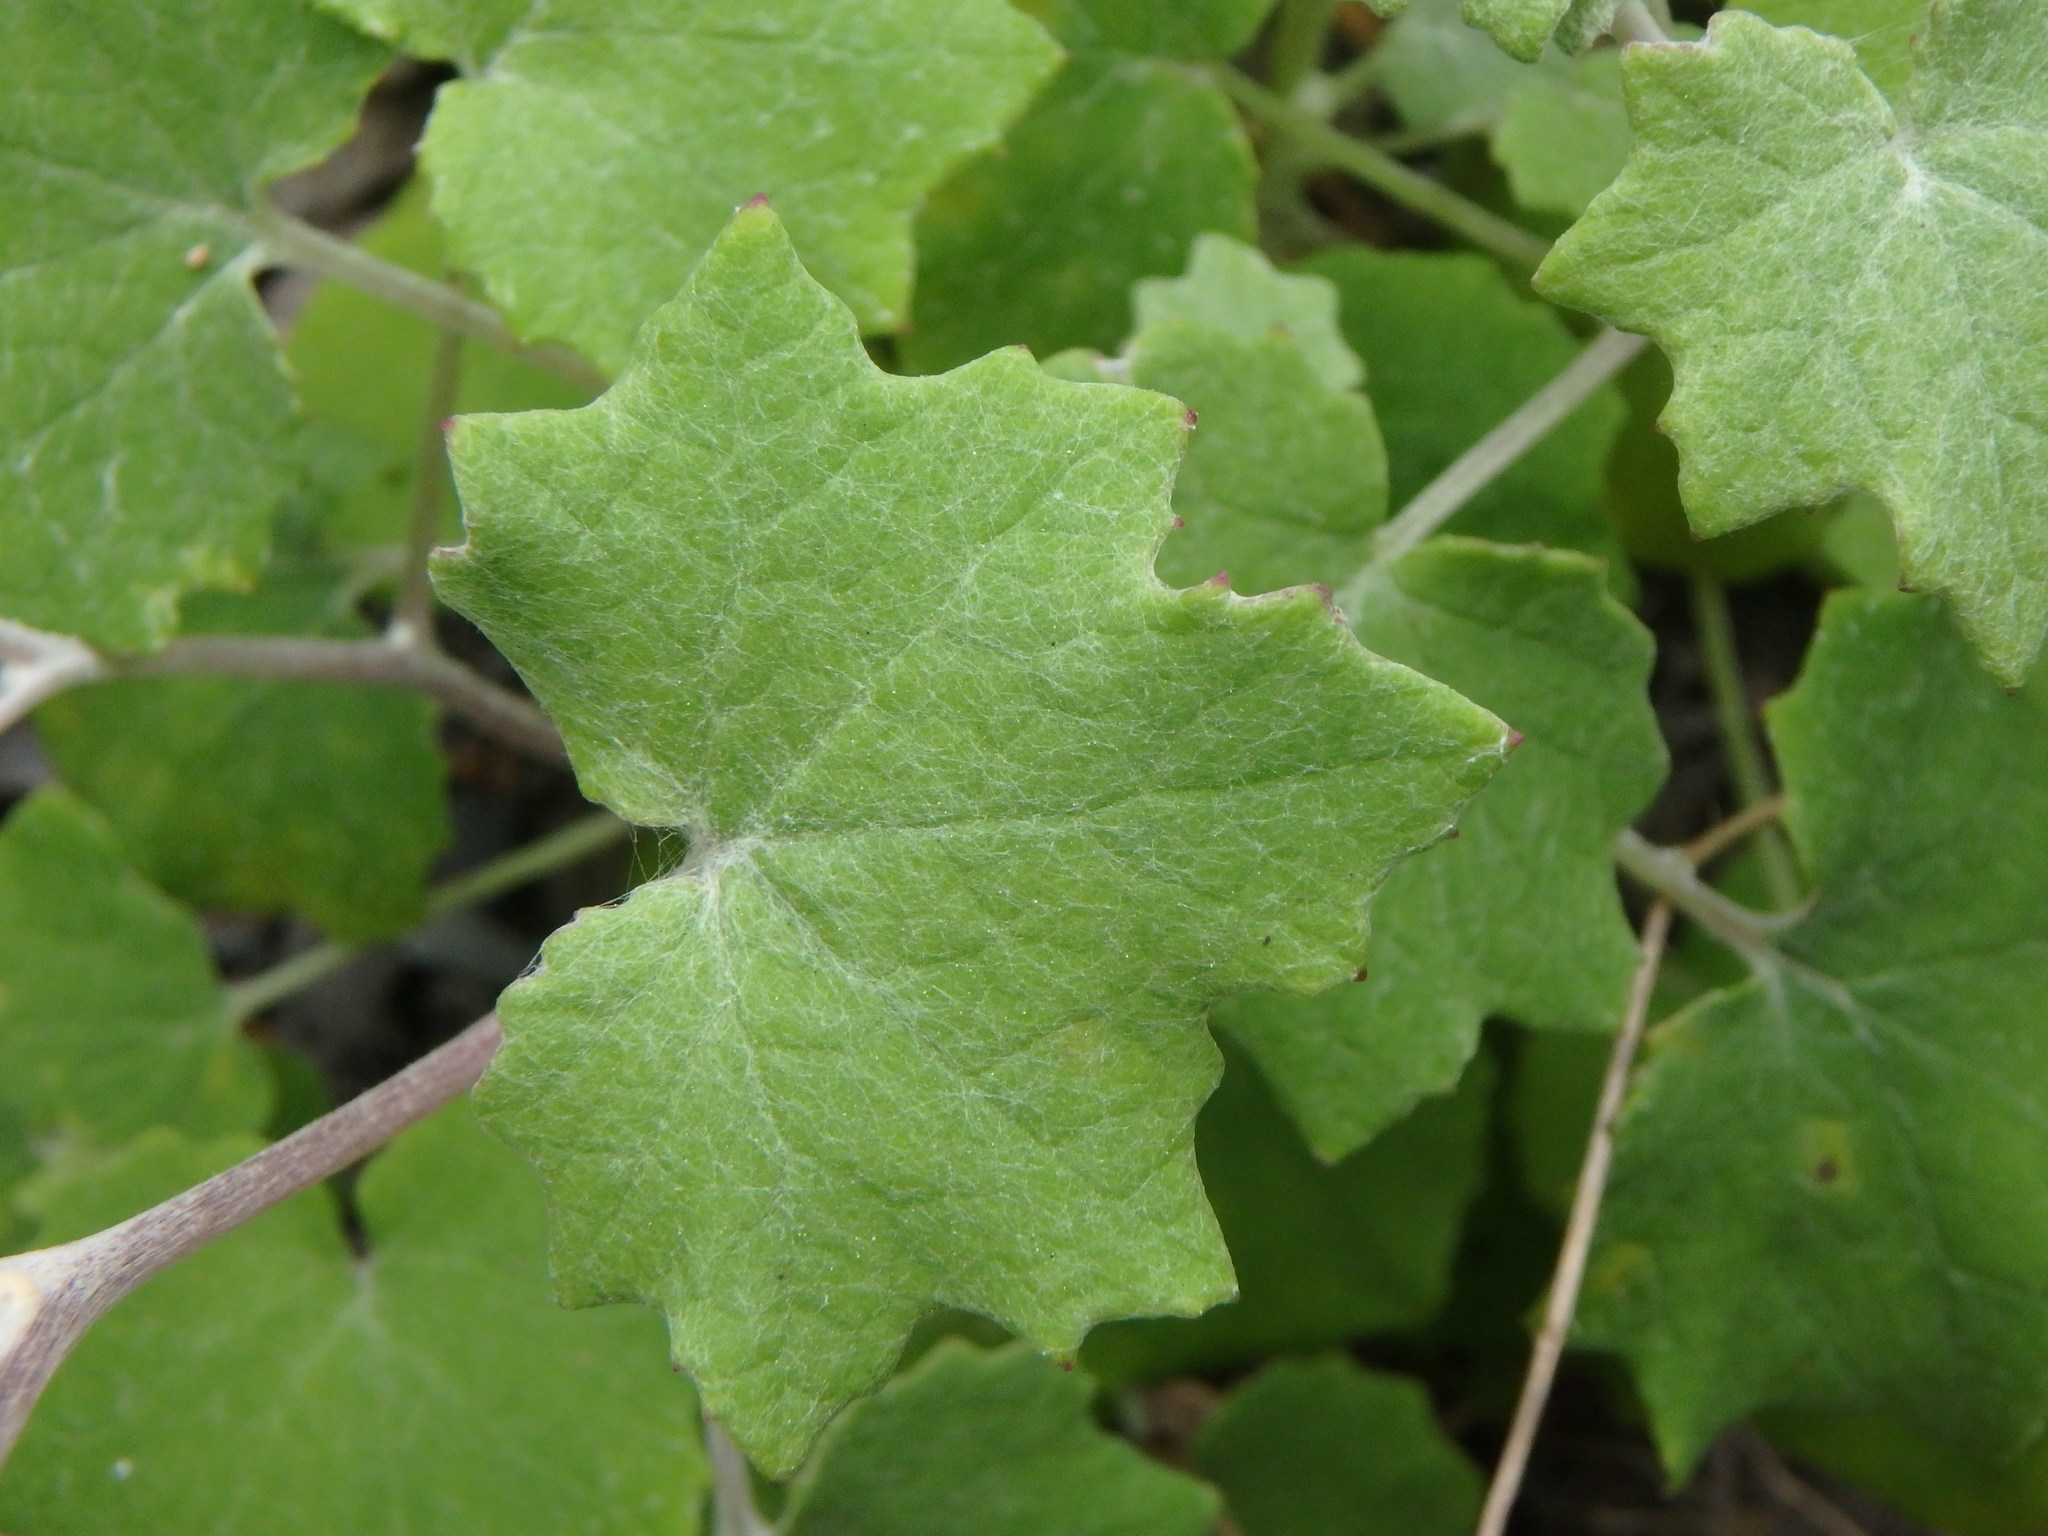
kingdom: Plantae
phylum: Tracheophyta
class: Magnoliopsida
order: Asterales
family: Asteraceae
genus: Pericallis
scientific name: Pericallis lanata
